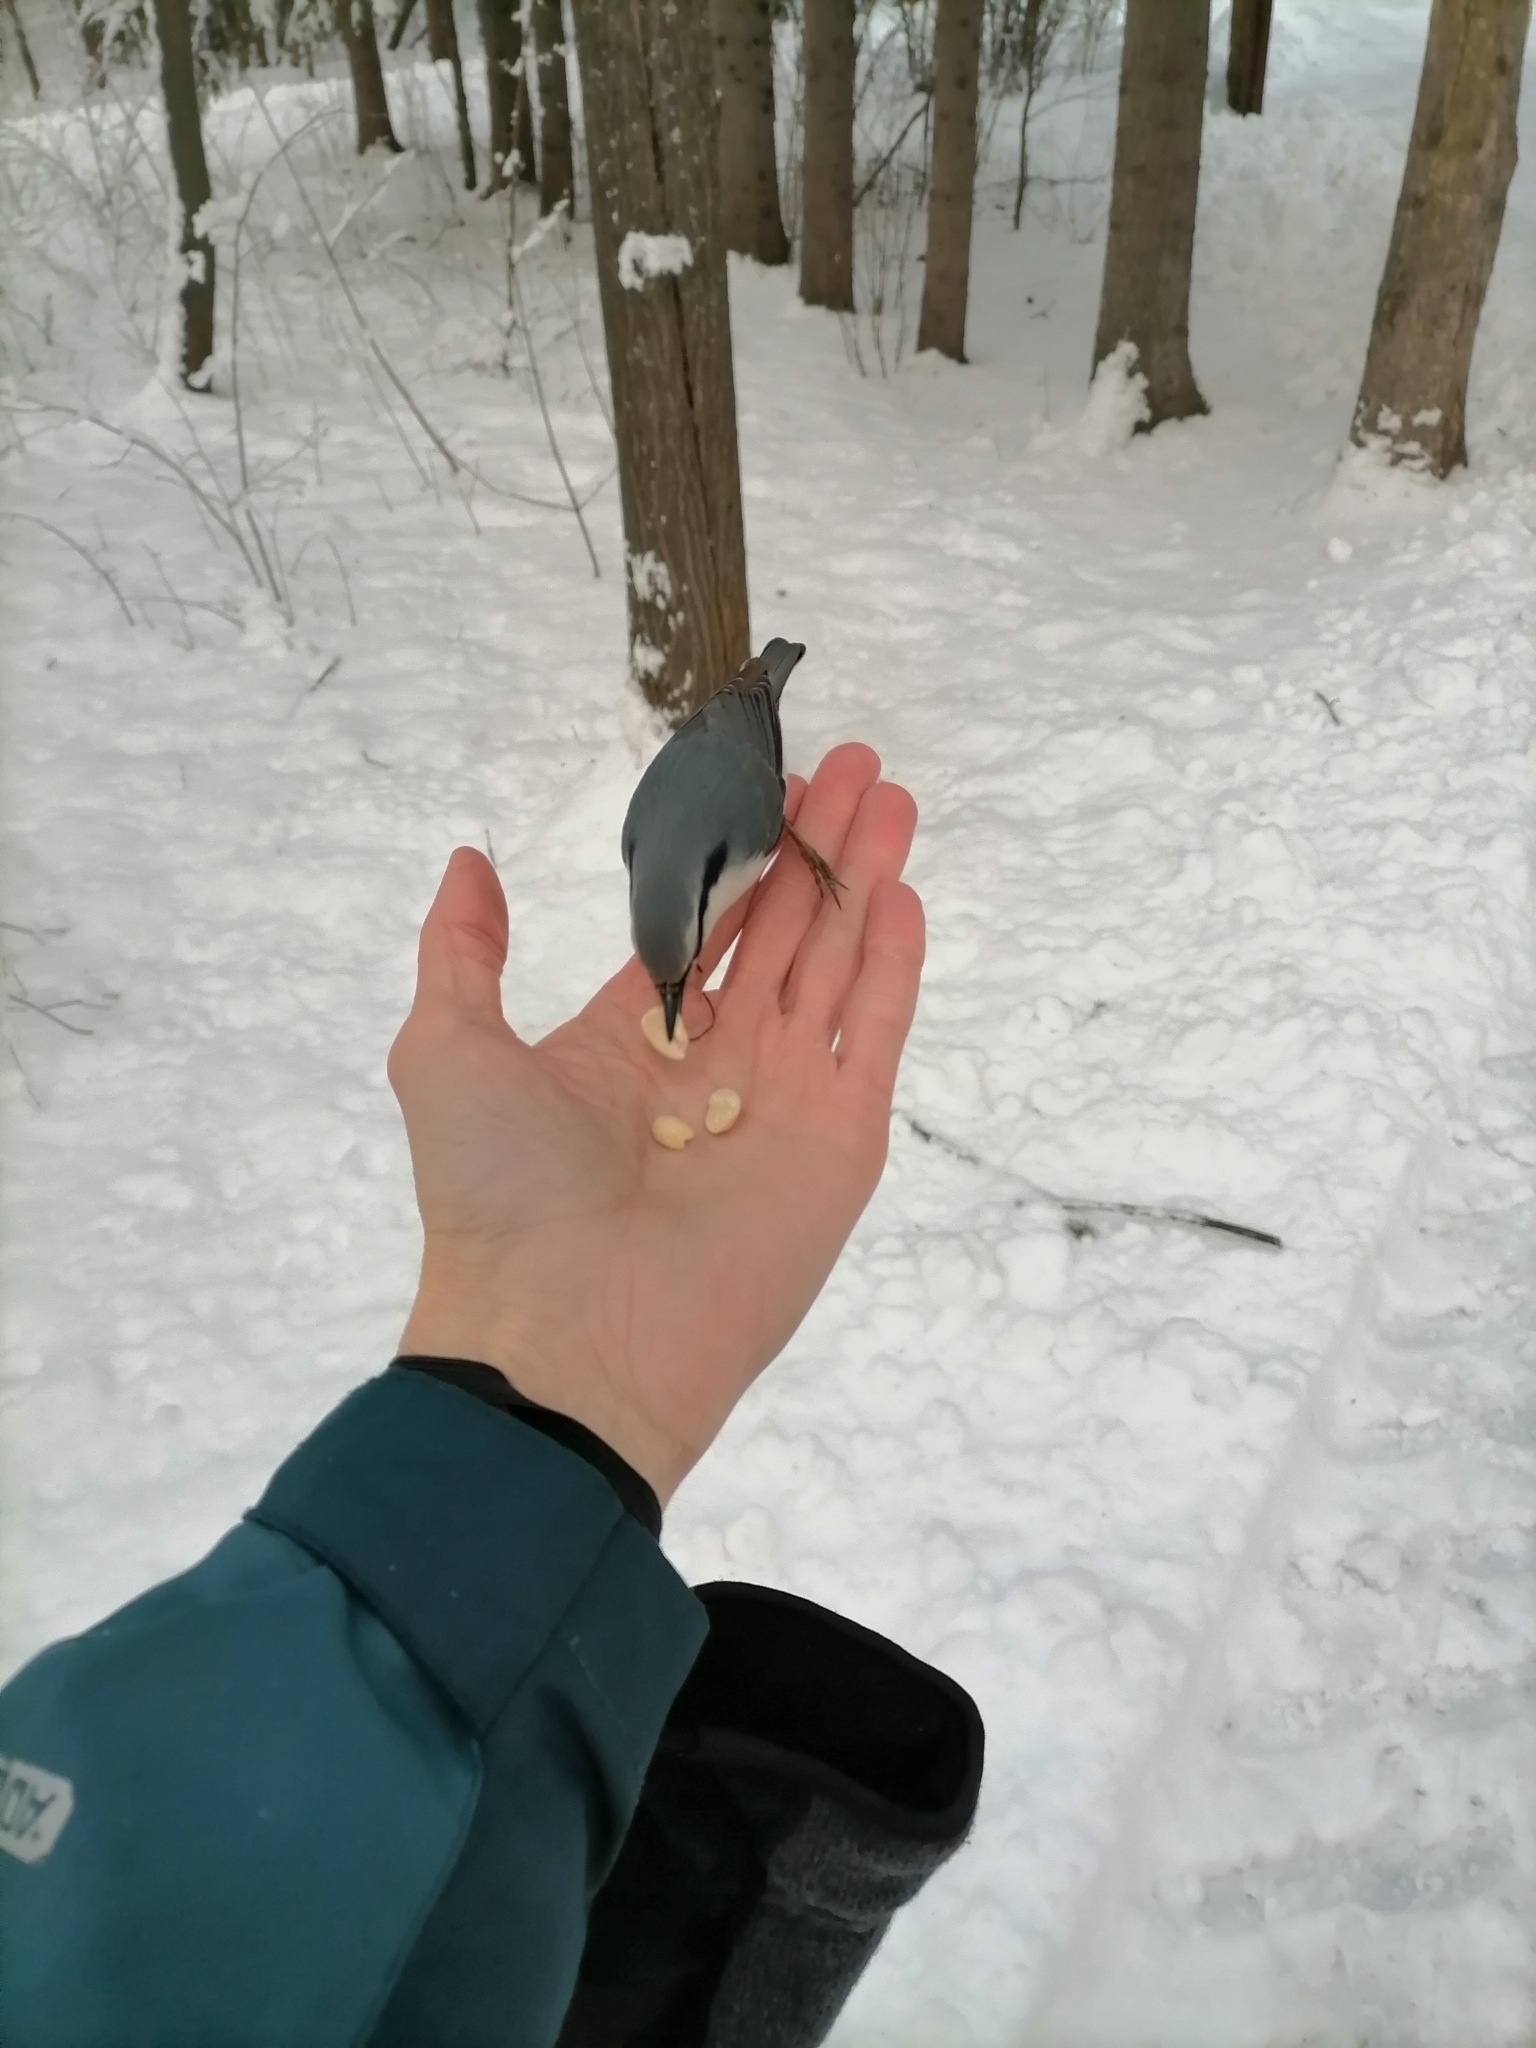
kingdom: Animalia
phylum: Chordata
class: Aves
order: Passeriformes
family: Sittidae
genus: Sitta
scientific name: Sitta europaea
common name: Eurasian nuthatch
